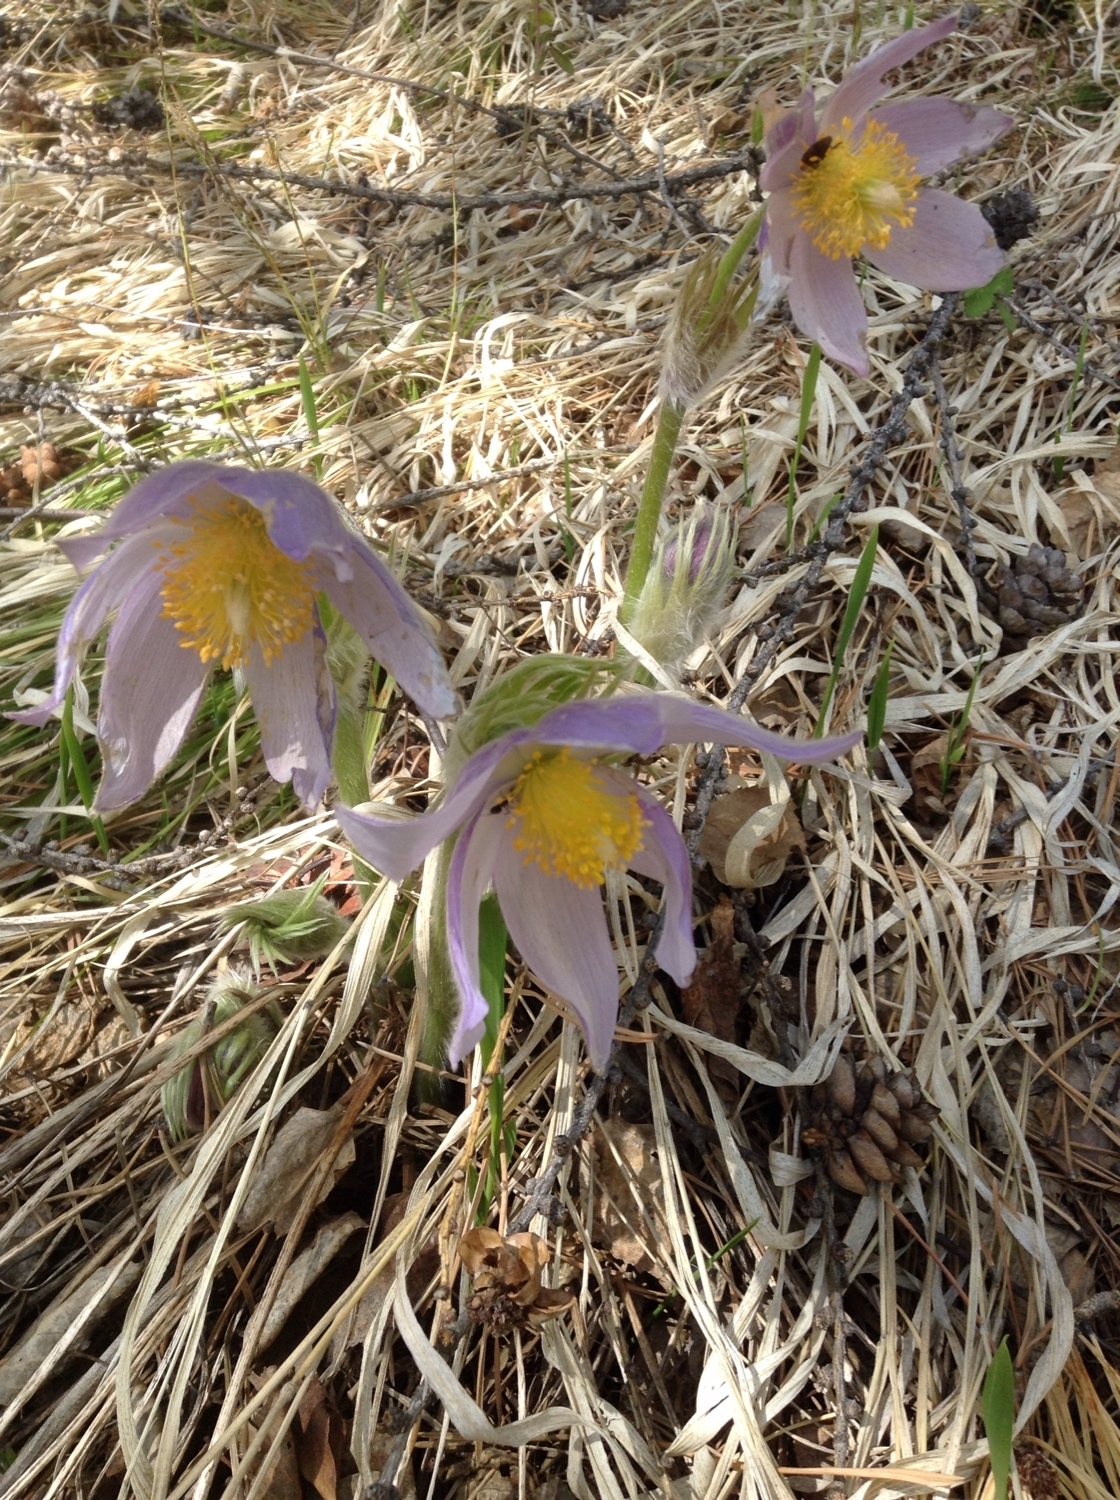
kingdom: Plantae
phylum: Tracheophyta
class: Magnoliopsida
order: Ranunculales
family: Ranunculaceae
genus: Pulsatilla
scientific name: Pulsatilla patens
